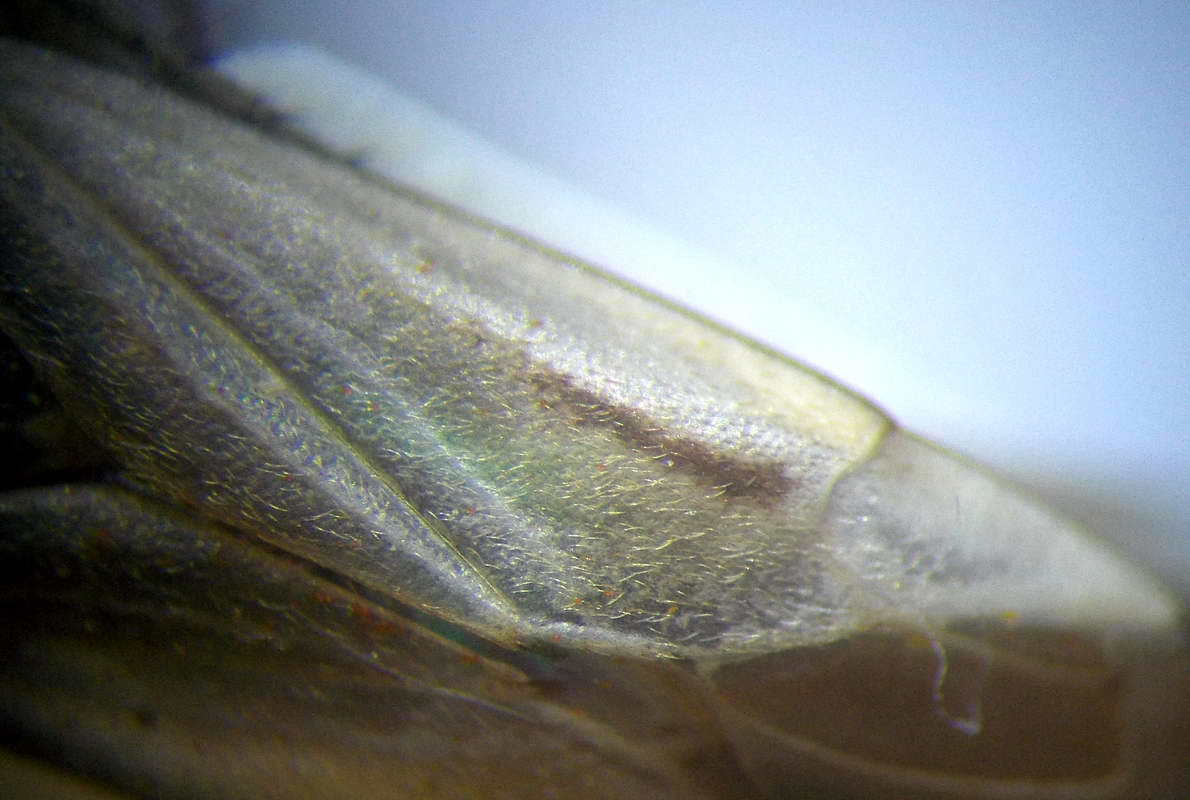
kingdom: Animalia
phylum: Arthropoda
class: Insecta
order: Hemiptera
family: Miridae
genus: Adelphocoris
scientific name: Adelphocoris lineolatus
